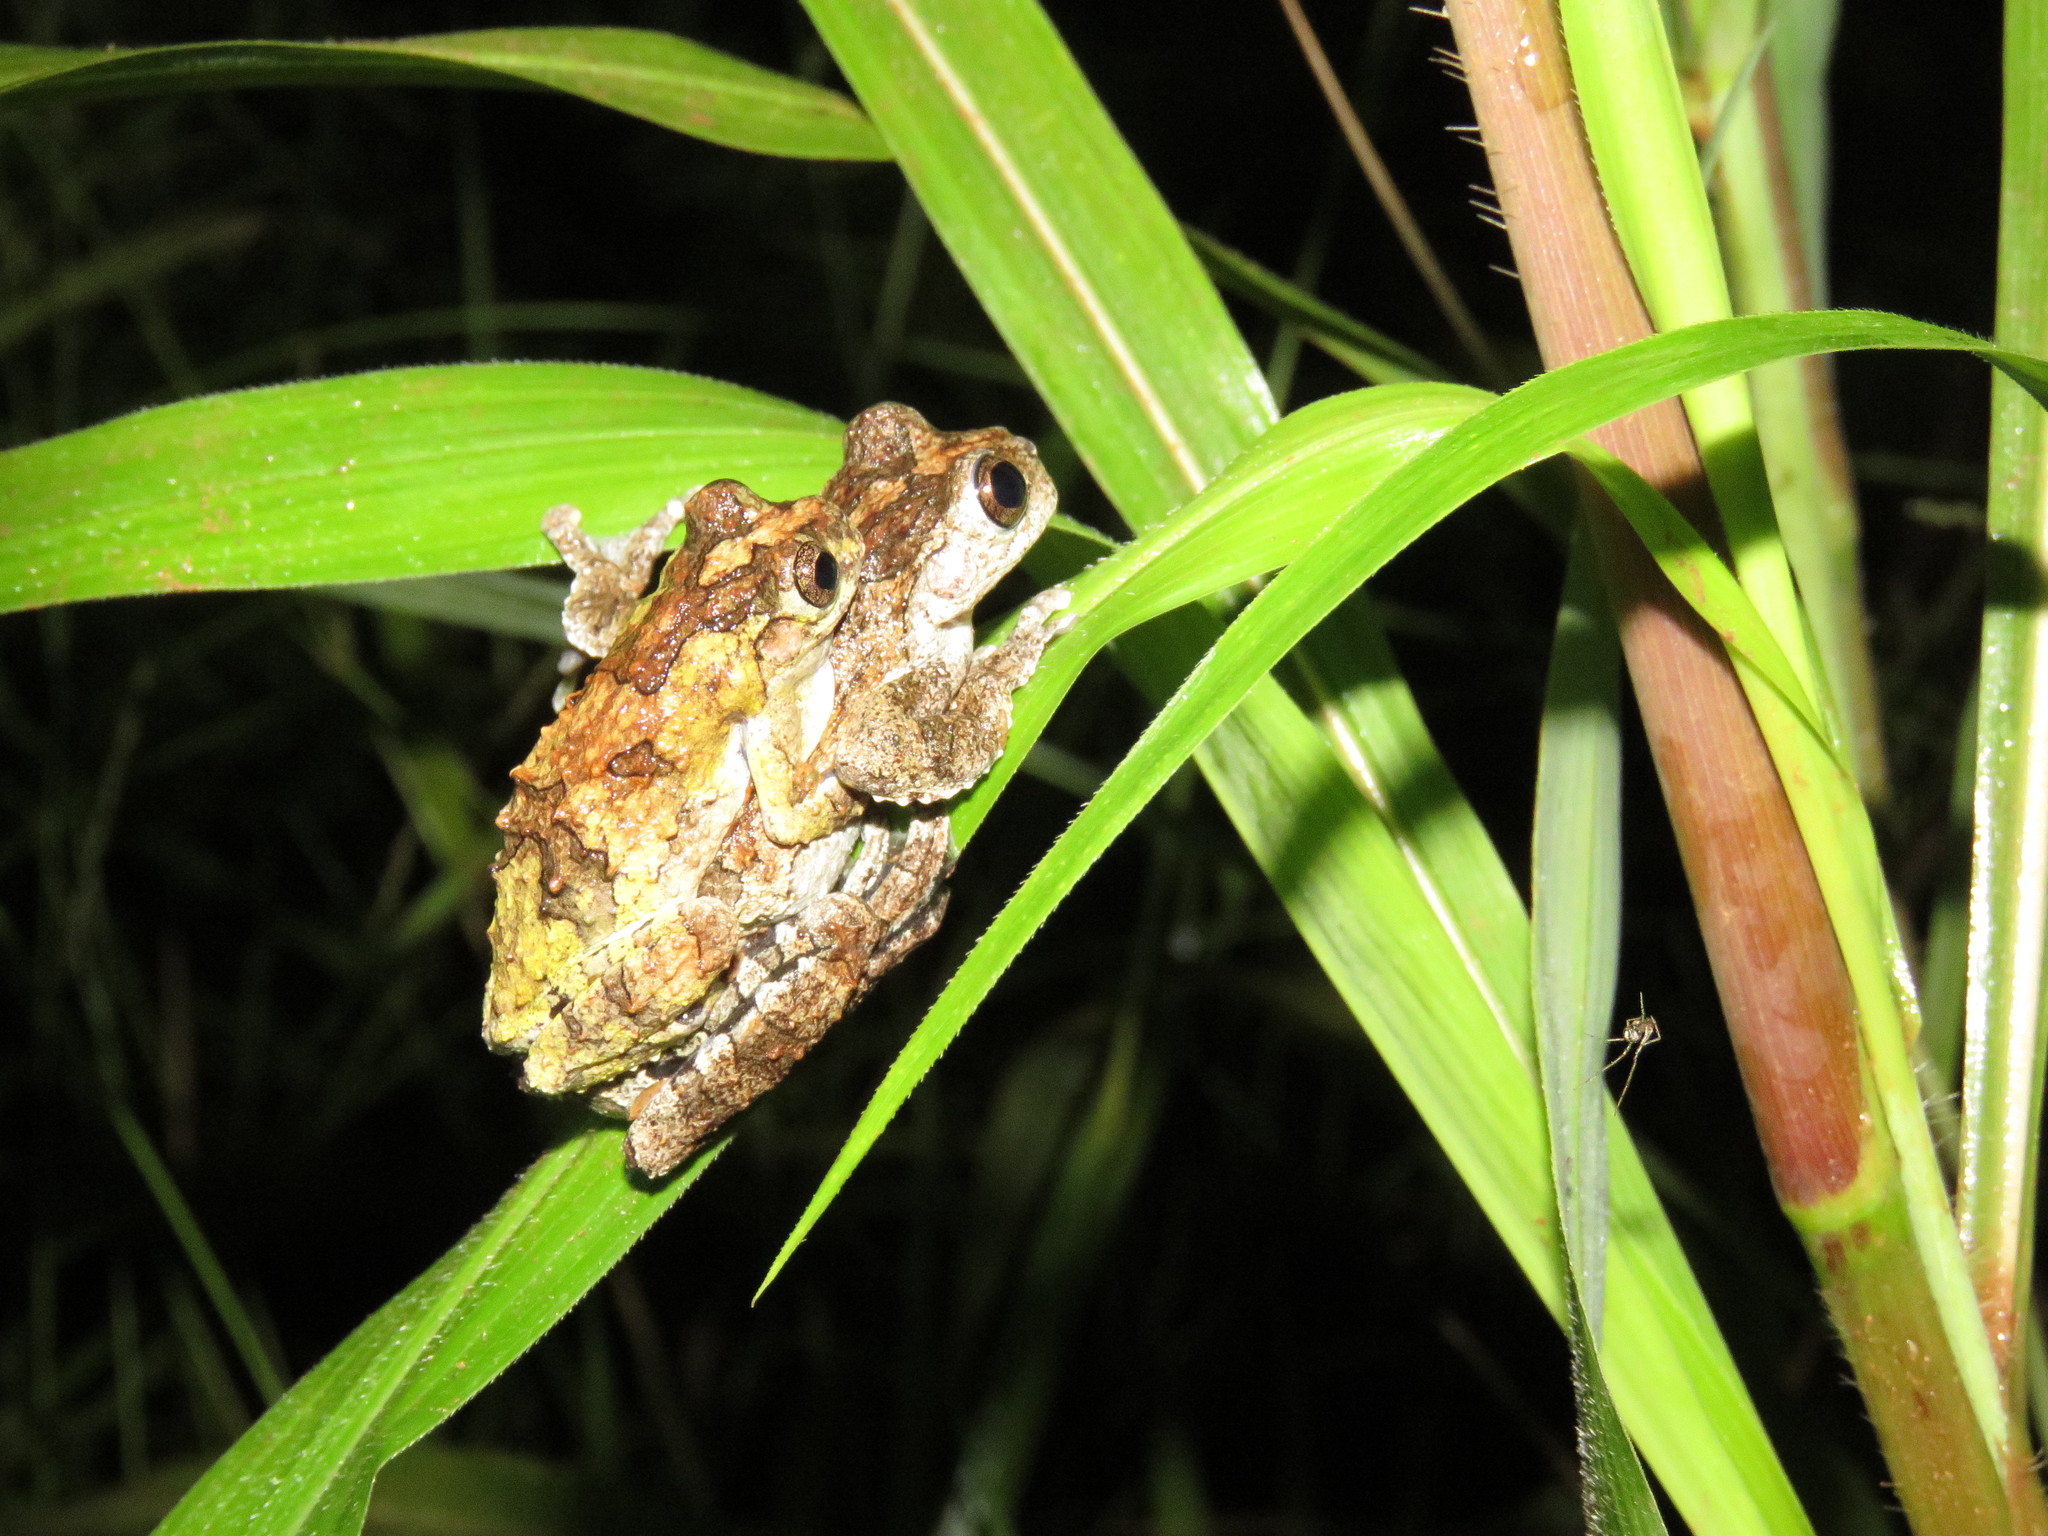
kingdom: Animalia
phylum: Chordata
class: Amphibia
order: Anura
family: Hylidae
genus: Dendropsophus
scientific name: Dendropsophus acreanus
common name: Acre treefrog
